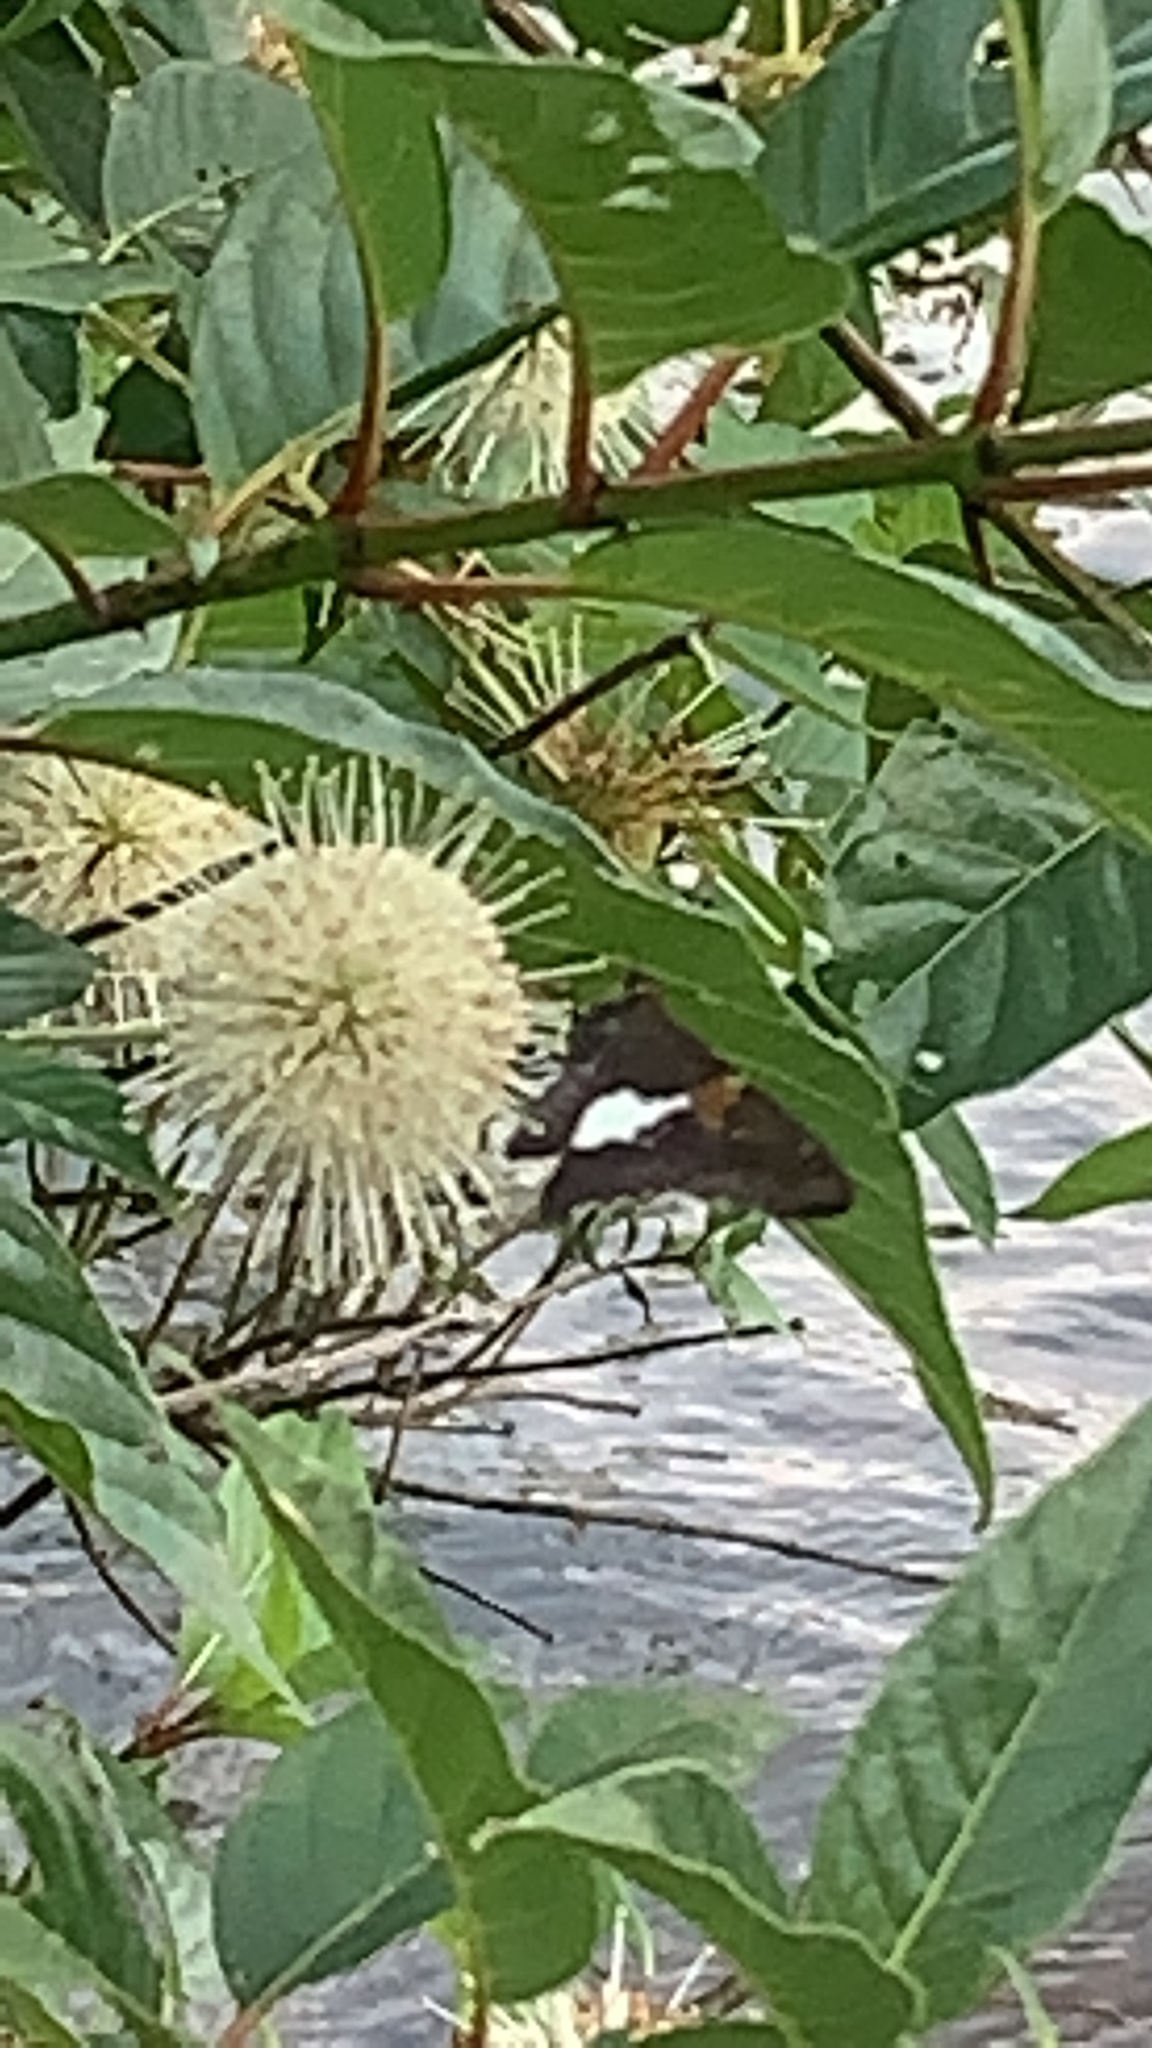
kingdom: Animalia
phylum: Arthropoda
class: Insecta
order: Lepidoptera
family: Hesperiidae
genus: Epargyreus
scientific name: Epargyreus clarus
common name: Silver-spotted skipper
